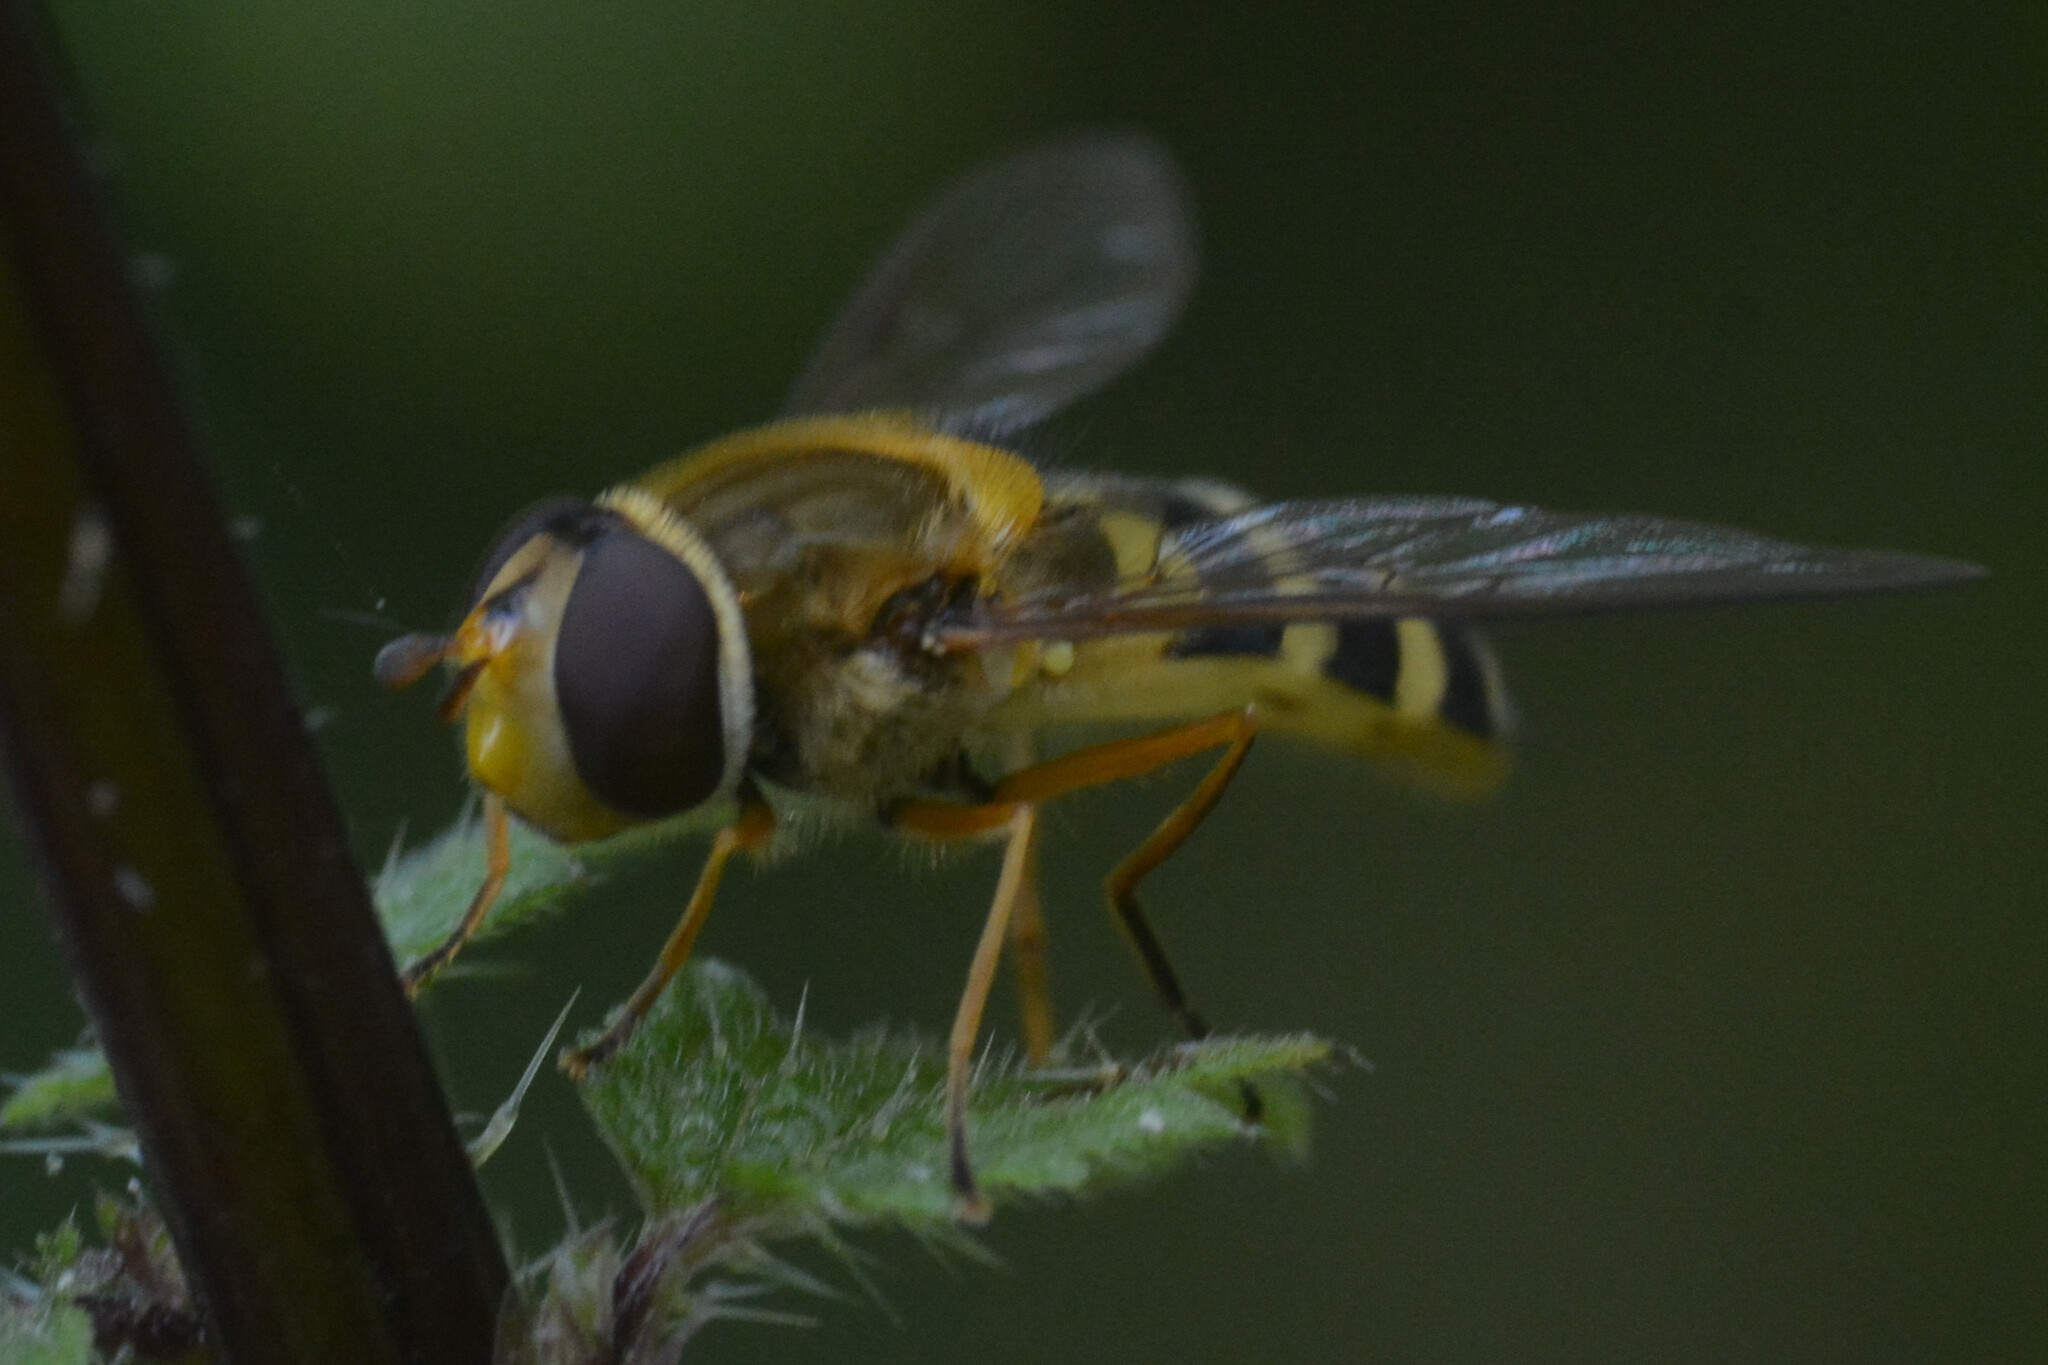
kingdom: Animalia
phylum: Arthropoda
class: Insecta
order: Diptera
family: Syrphidae
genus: Syrphus
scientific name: Syrphus ribesii
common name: Common flower fly
